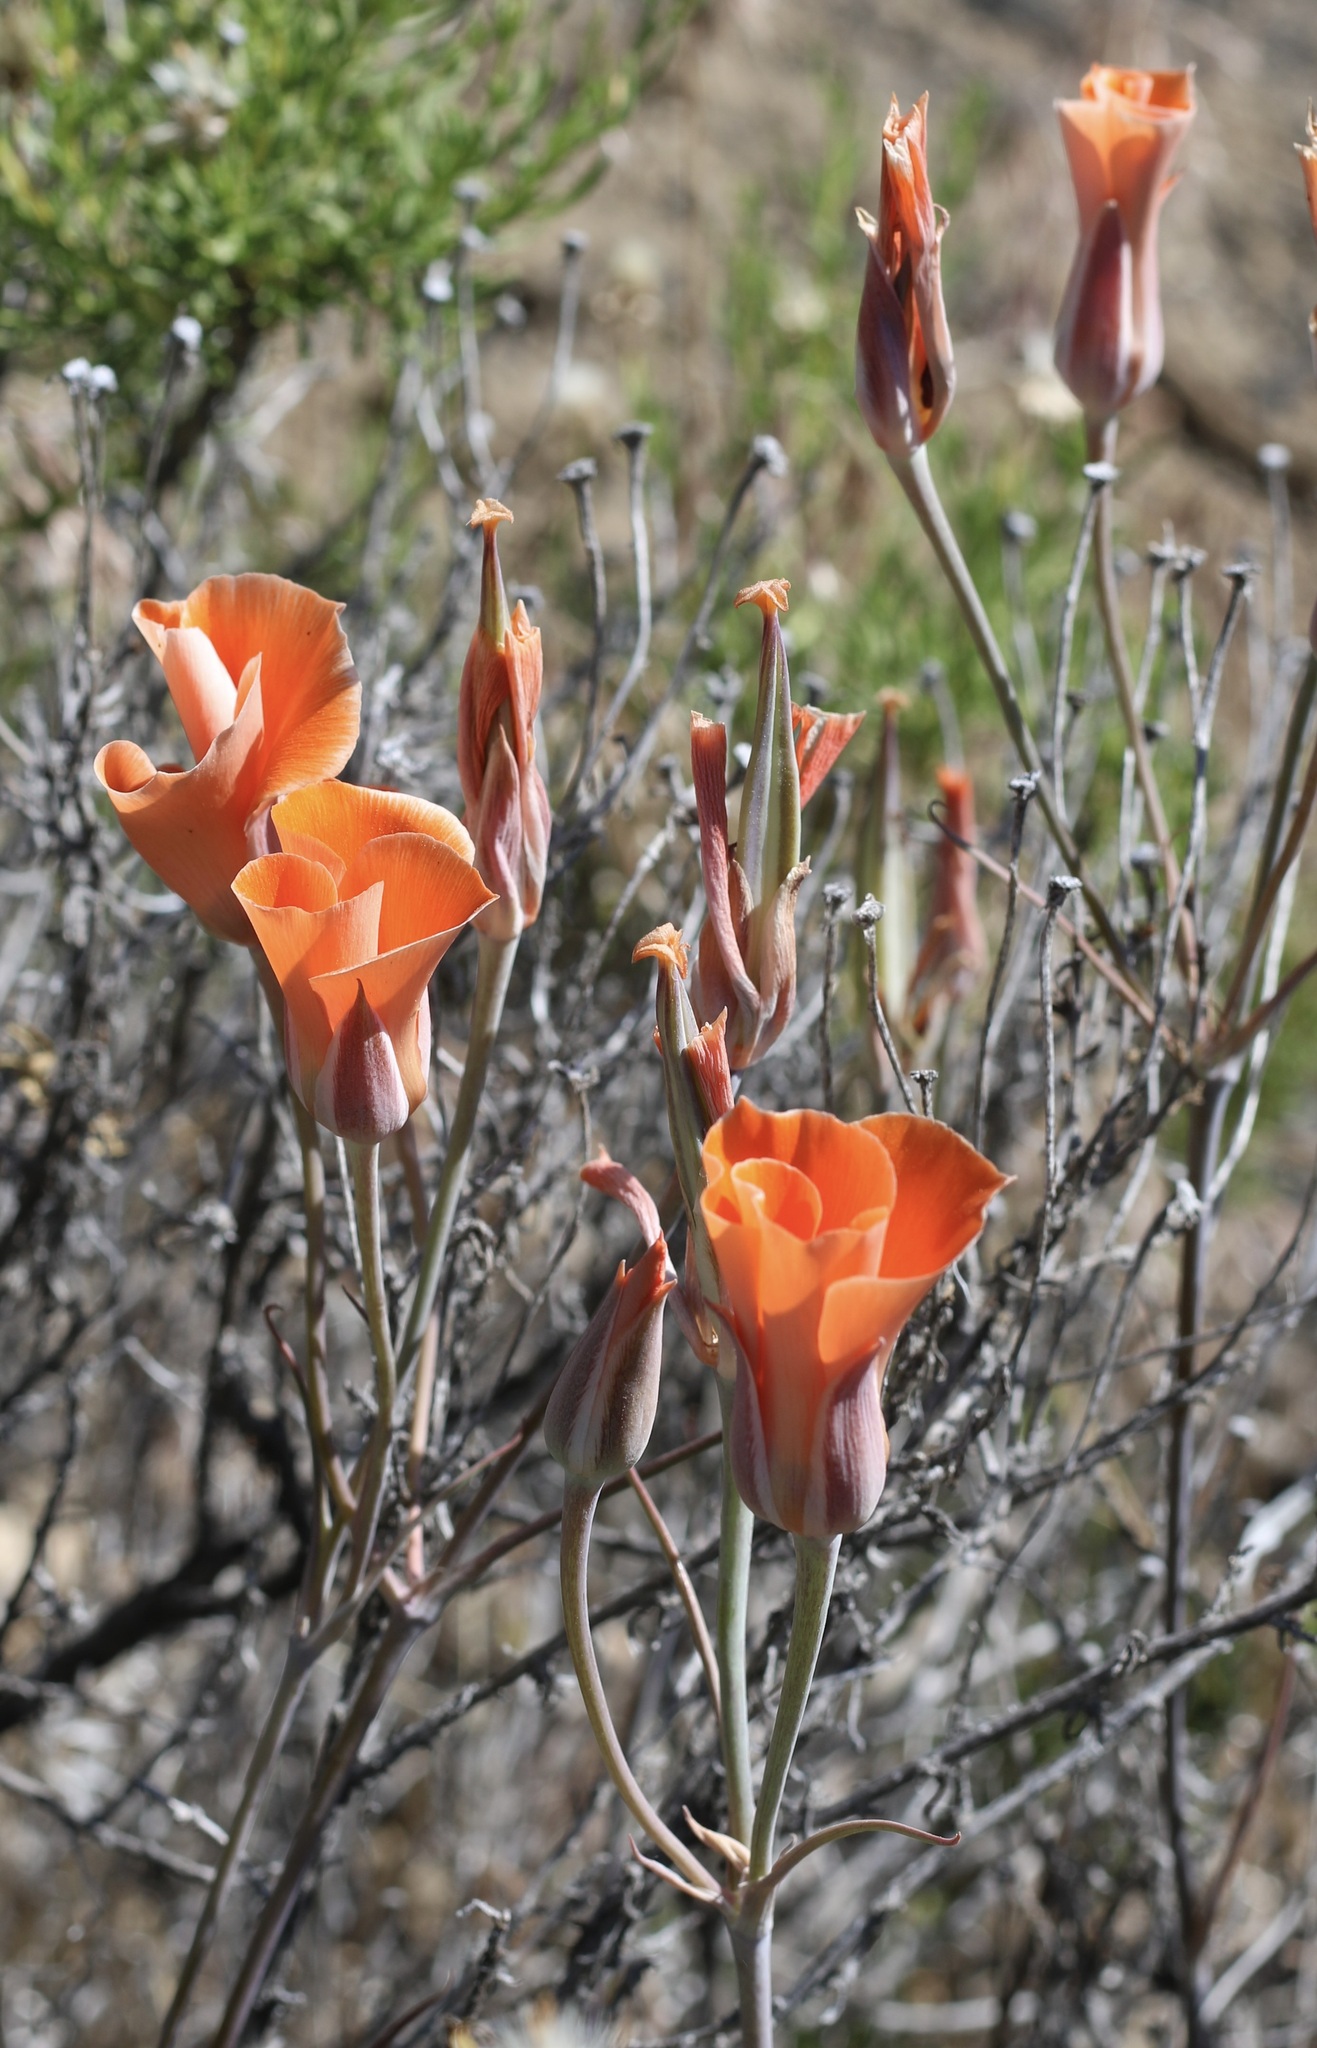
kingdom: Plantae
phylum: Tracheophyta
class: Liliopsida
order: Liliales
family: Liliaceae
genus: Calochortus
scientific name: Calochortus kennedyi
